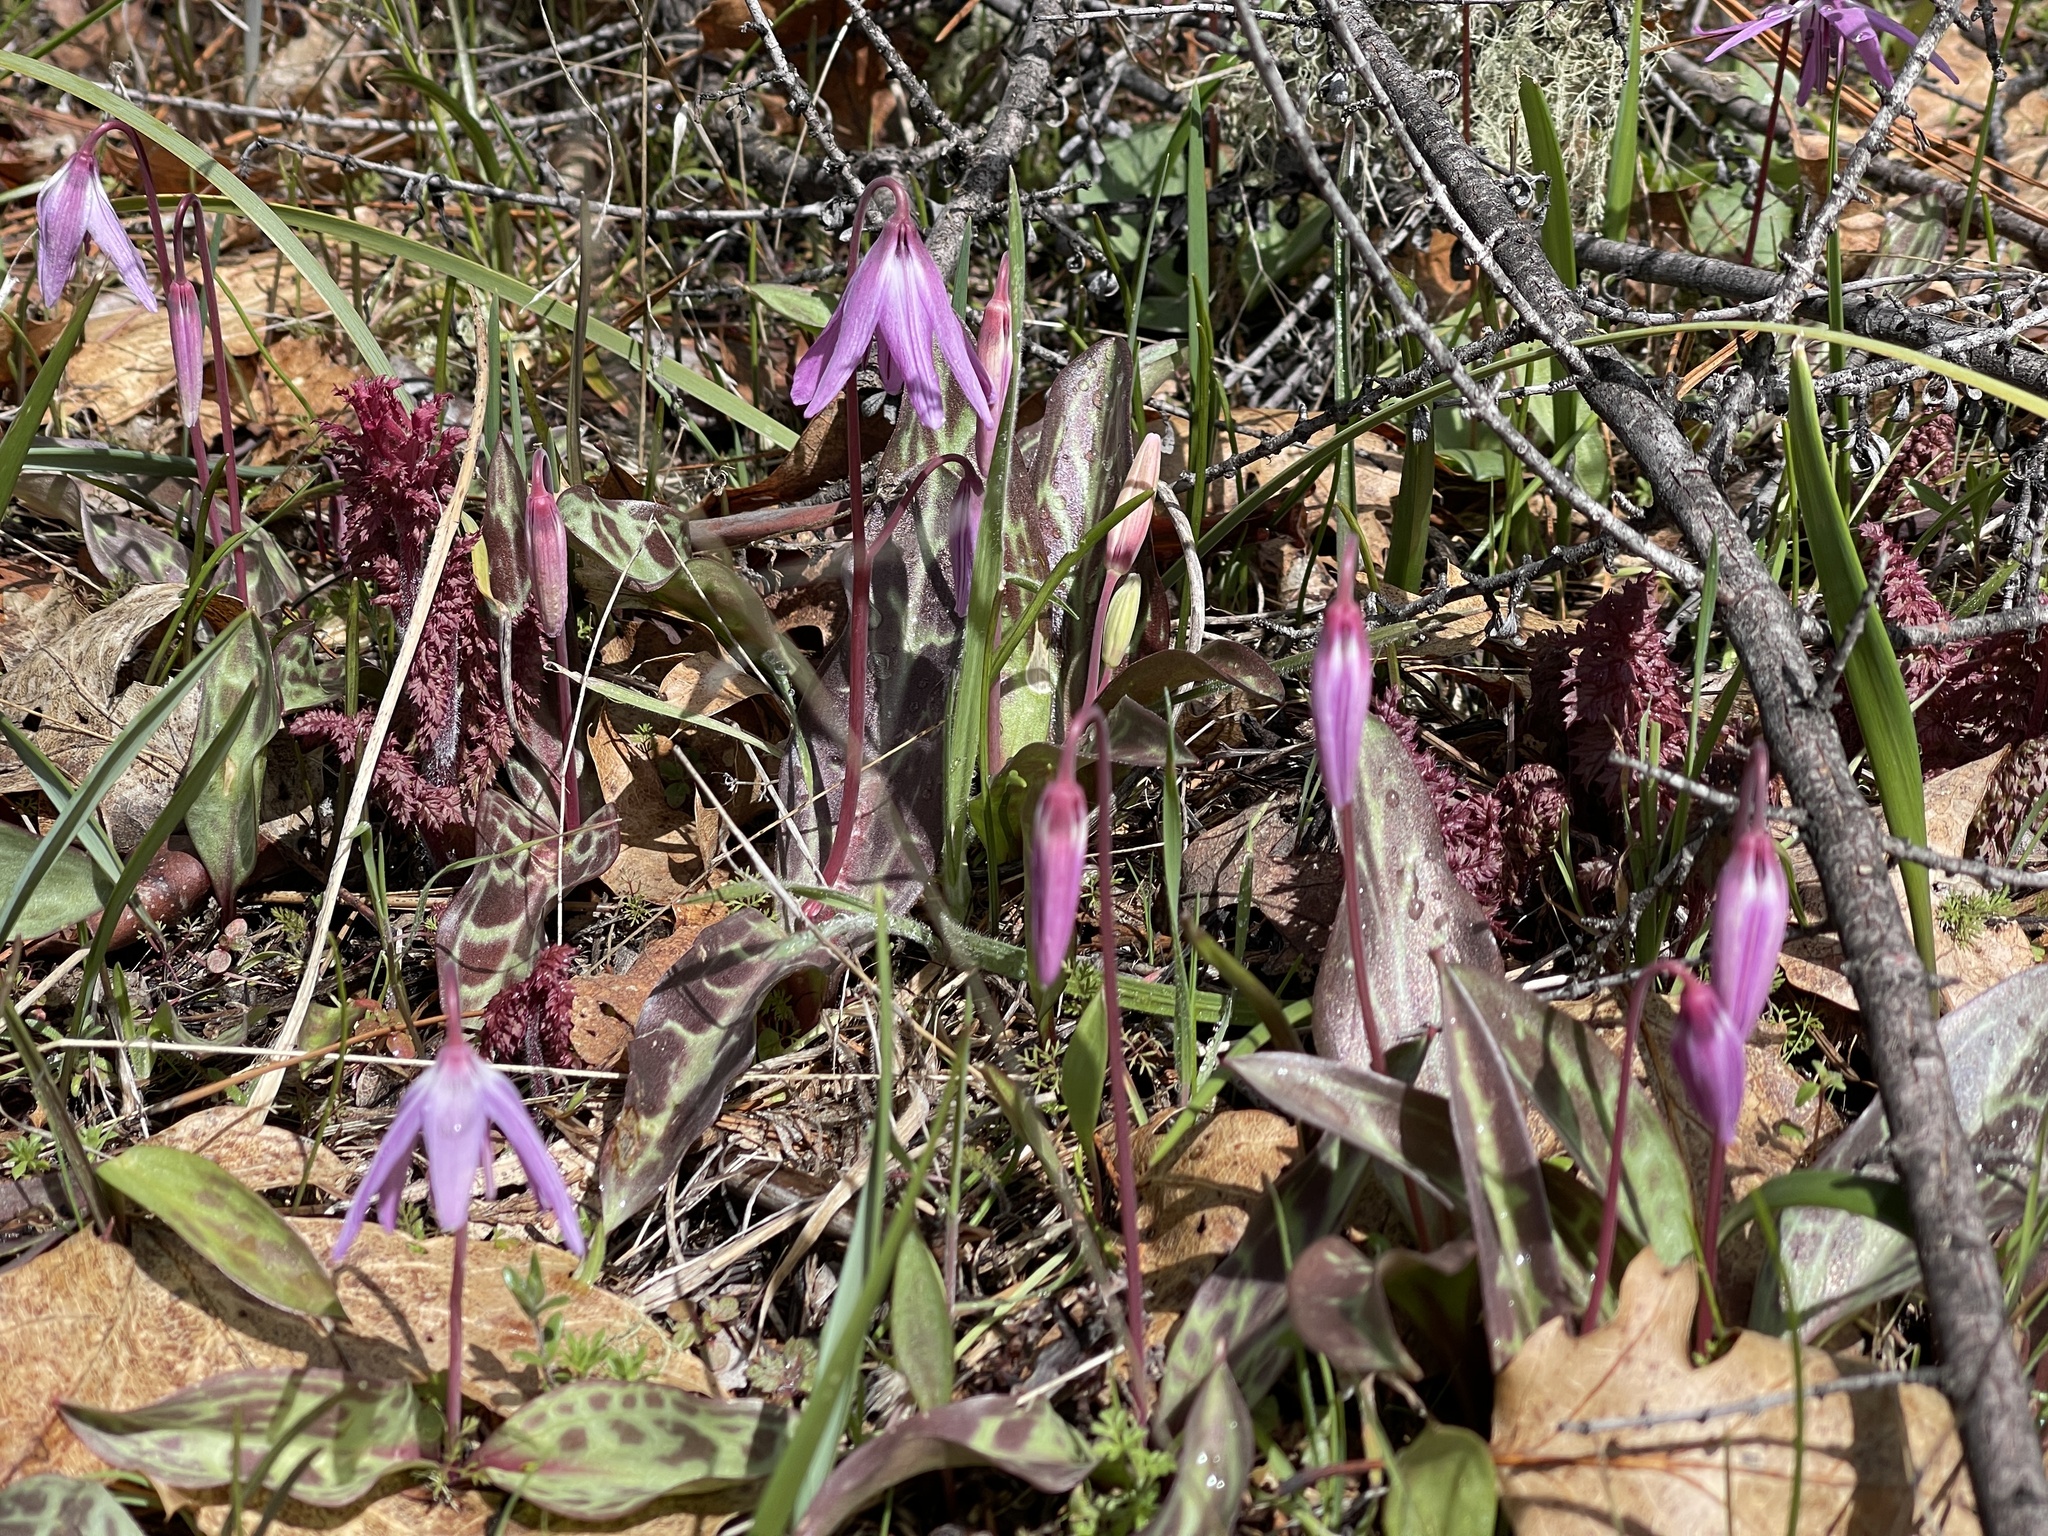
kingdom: Plantae
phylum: Tracheophyta
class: Liliopsida
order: Liliales
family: Liliaceae
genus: Erythronium
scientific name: Erythronium hendersonii
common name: Henderson's fawn-lily
